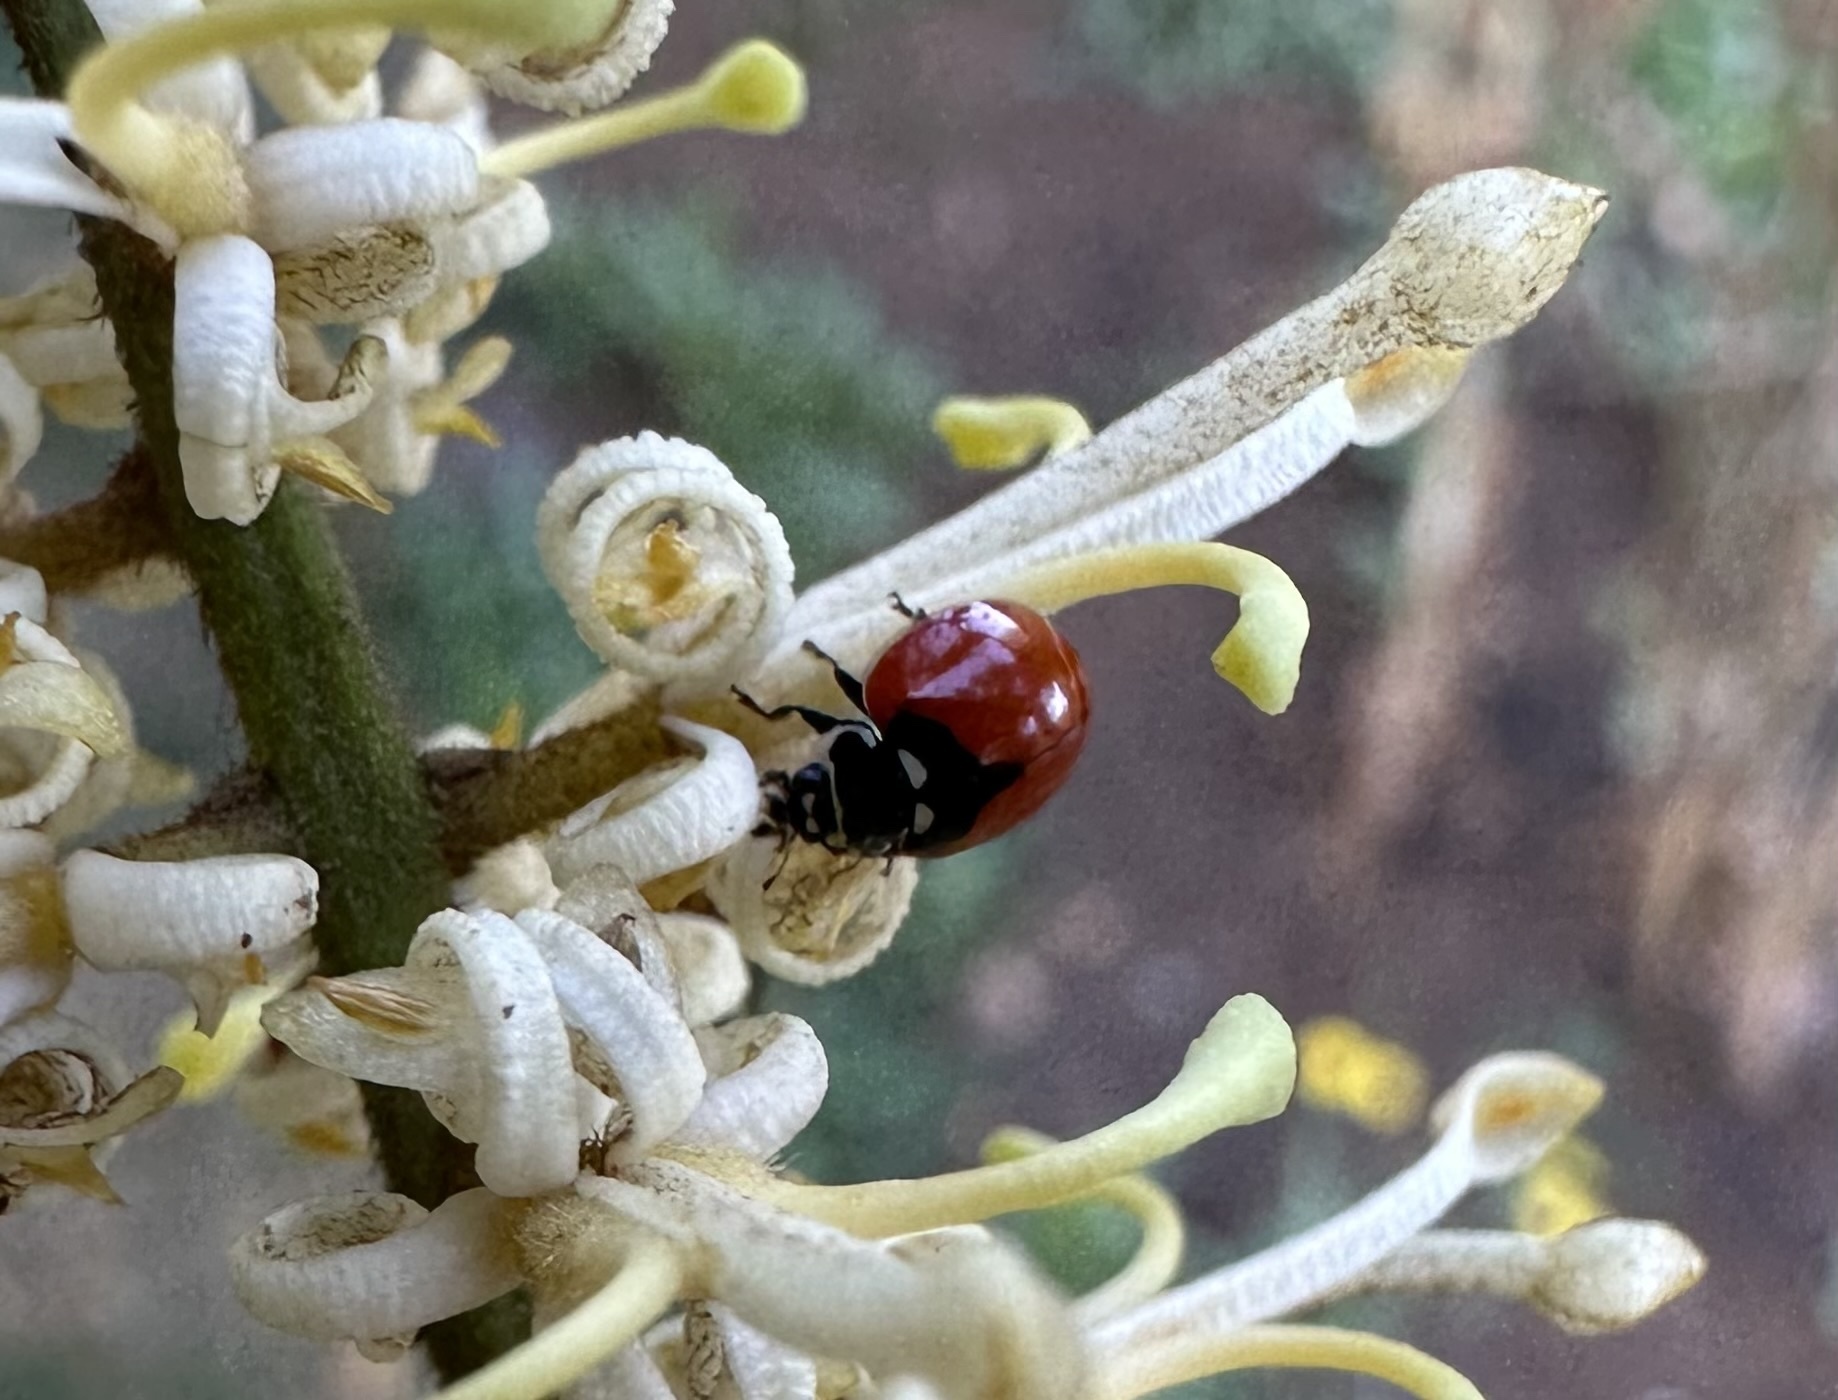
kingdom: Animalia
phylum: Arthropoda
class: Insecta
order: Coleoptera
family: Coccinellidae
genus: Adalia
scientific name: Adalia deficiens
